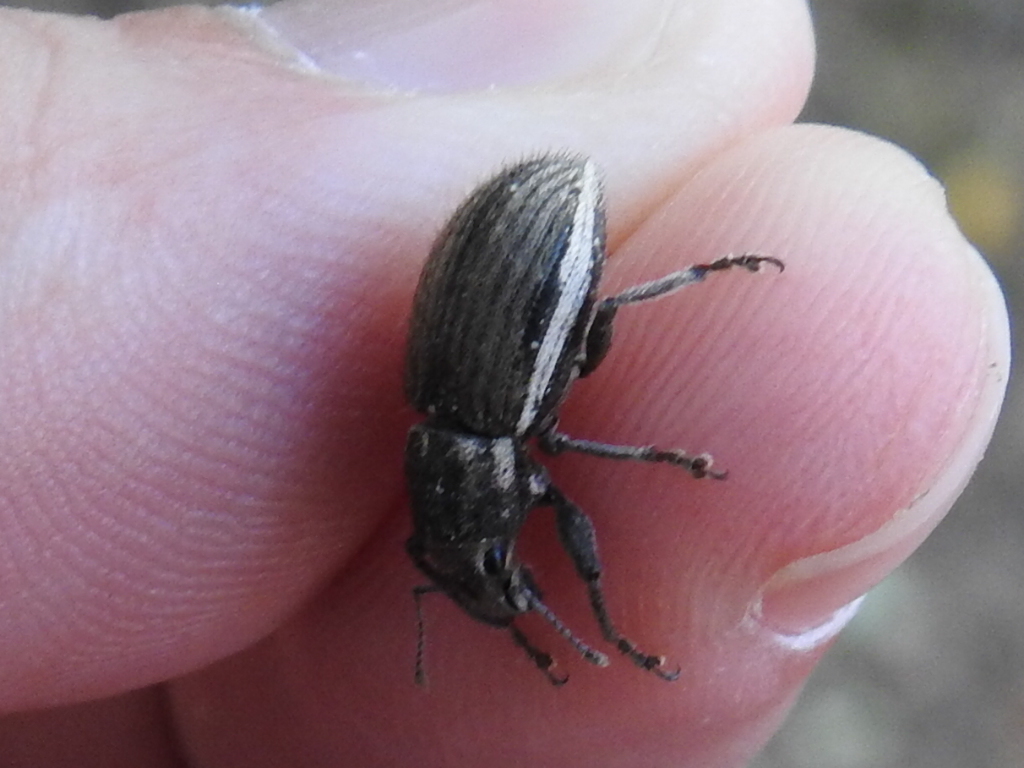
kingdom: Animalia
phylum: Arthropoda
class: Insecta
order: Coleoptera
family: Curculionidae
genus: Naupactus
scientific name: Naupactus leucoloma
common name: Whitefringed beetle
